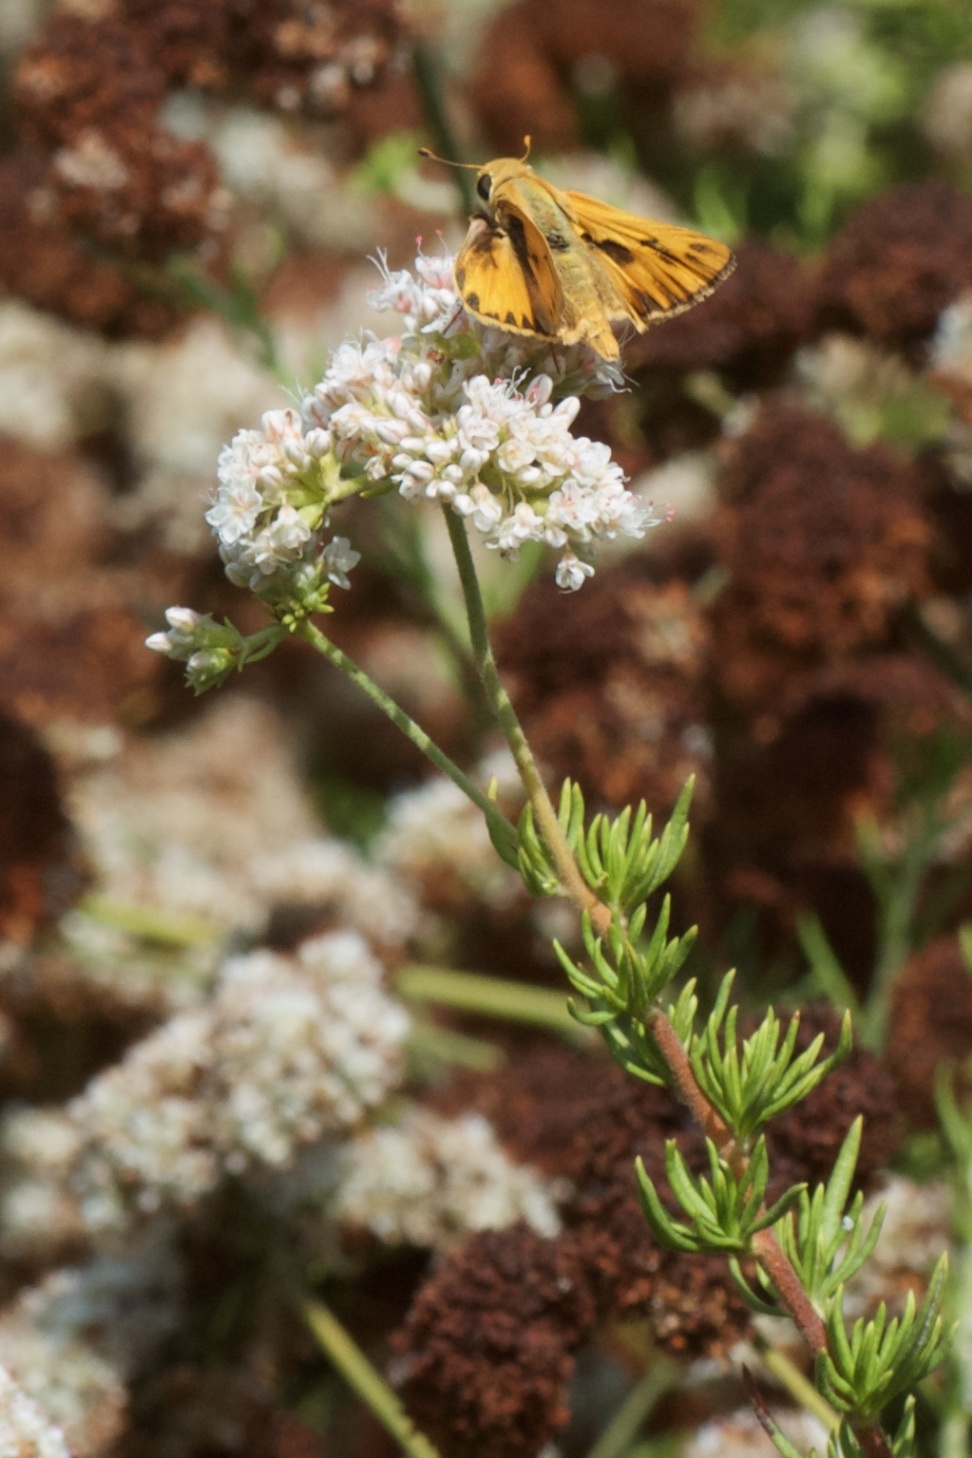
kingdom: Animalia
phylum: Arthropoda
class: Insecta
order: Lepidoptera
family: Hesperiidae
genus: Hylephila
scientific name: Hylephila phyleus
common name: Fiery skipper
